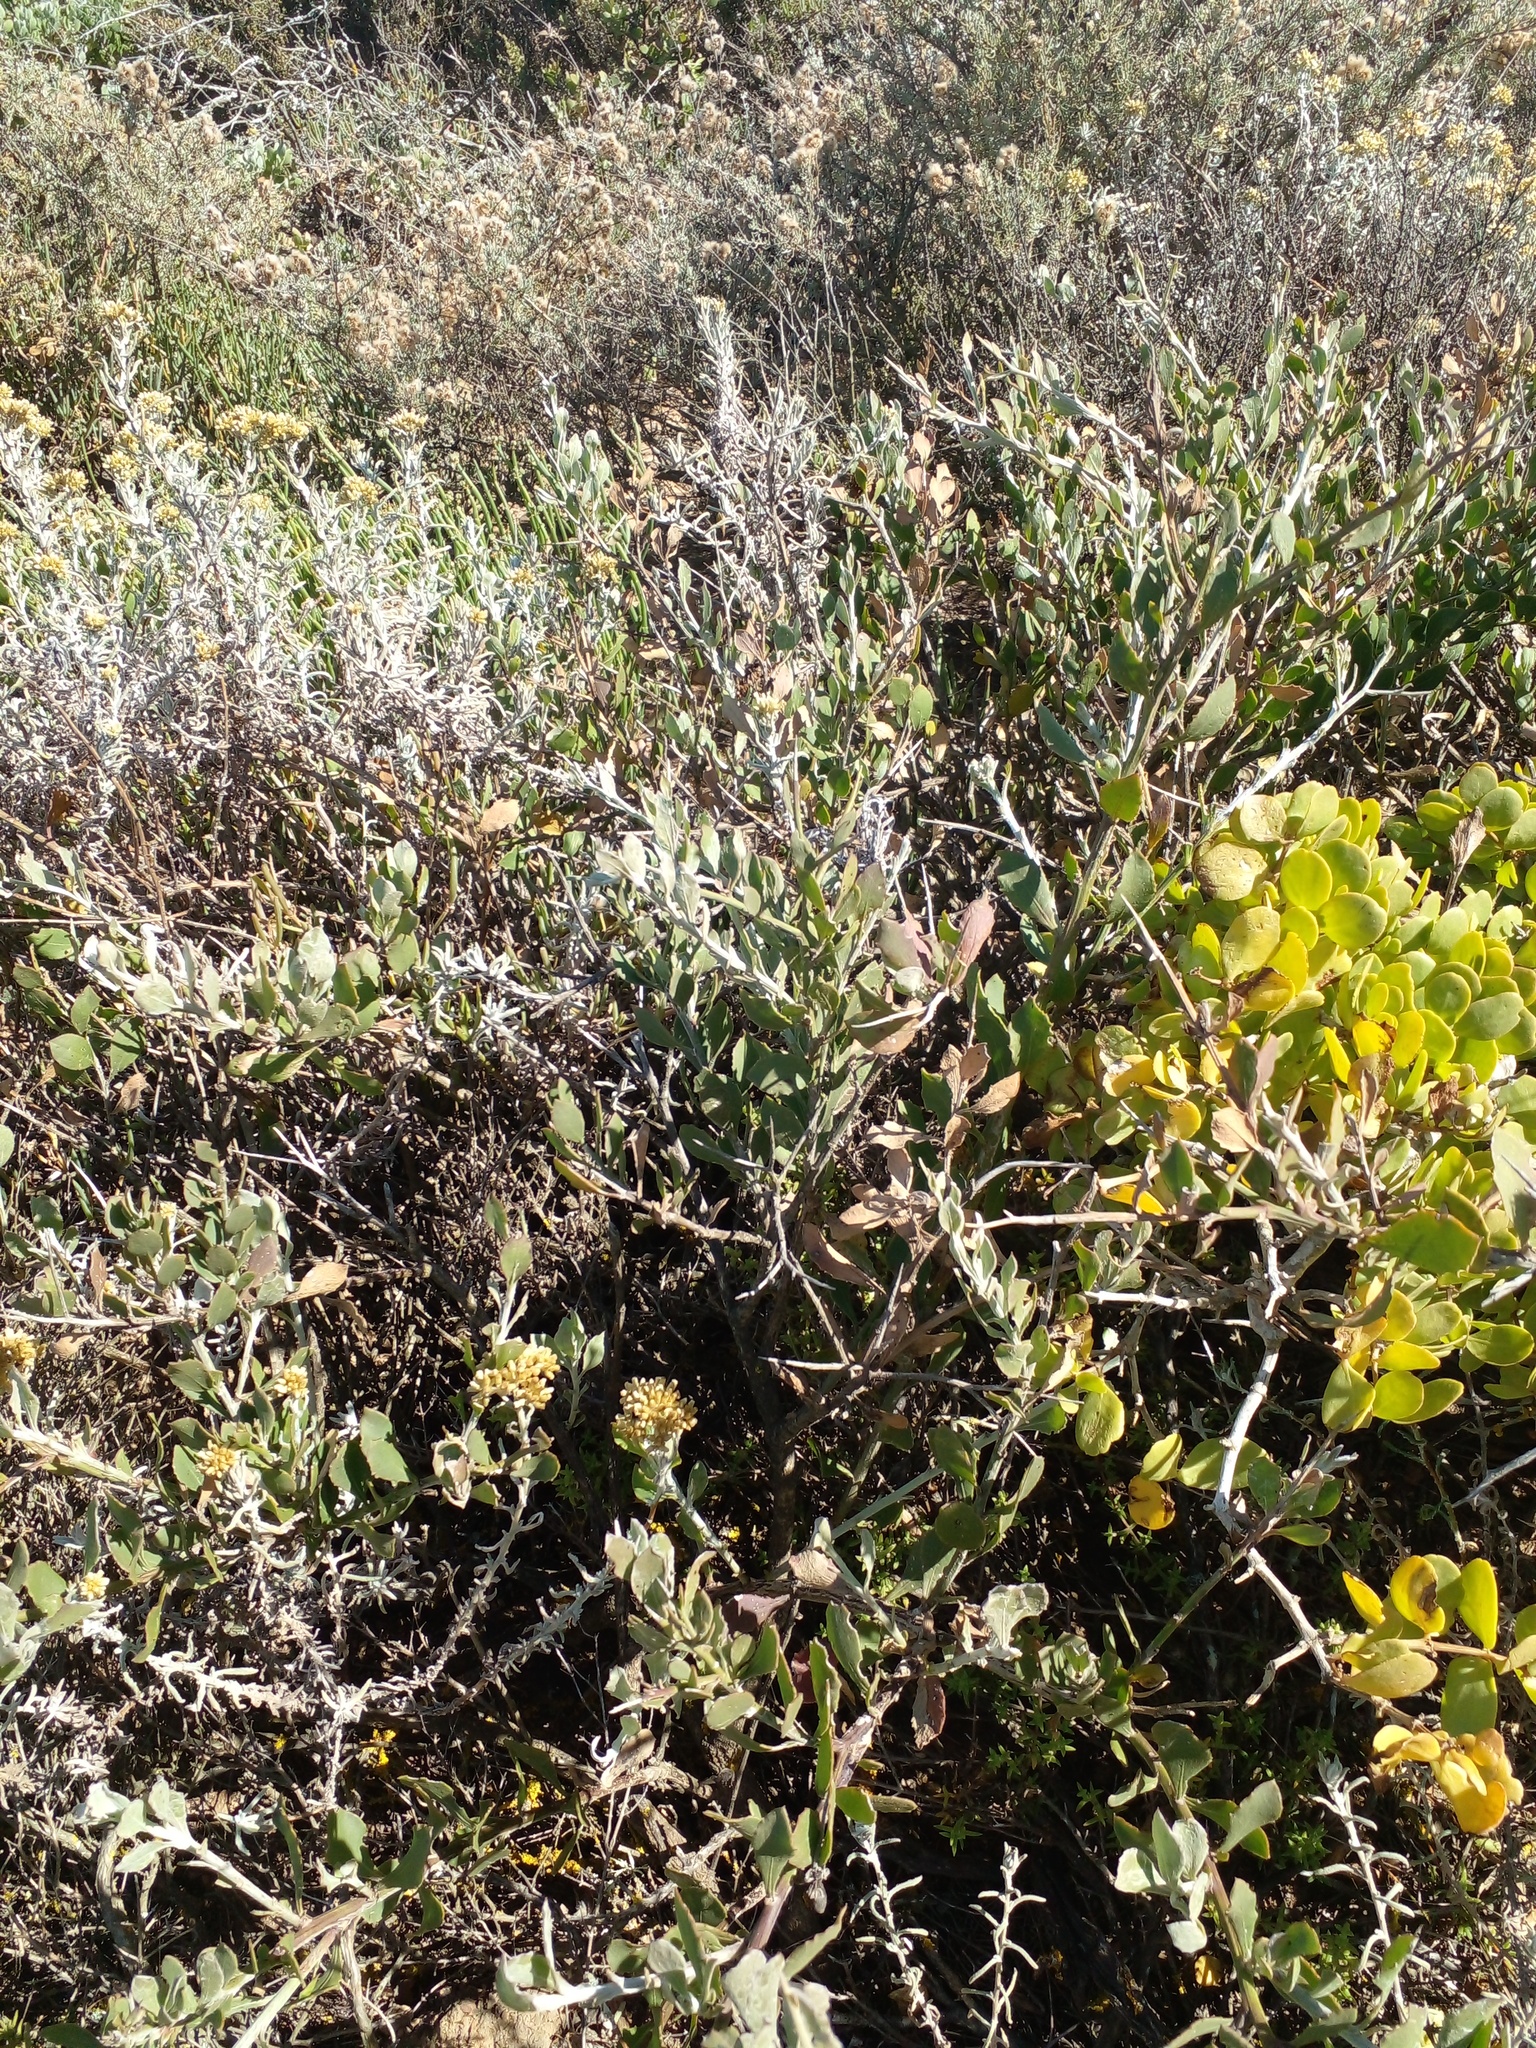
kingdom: Plantae
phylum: Tracheophyta
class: Magnoliopsida
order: Asterales
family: Asteraceae
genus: Osteospermum
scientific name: Osteospermum incanum
